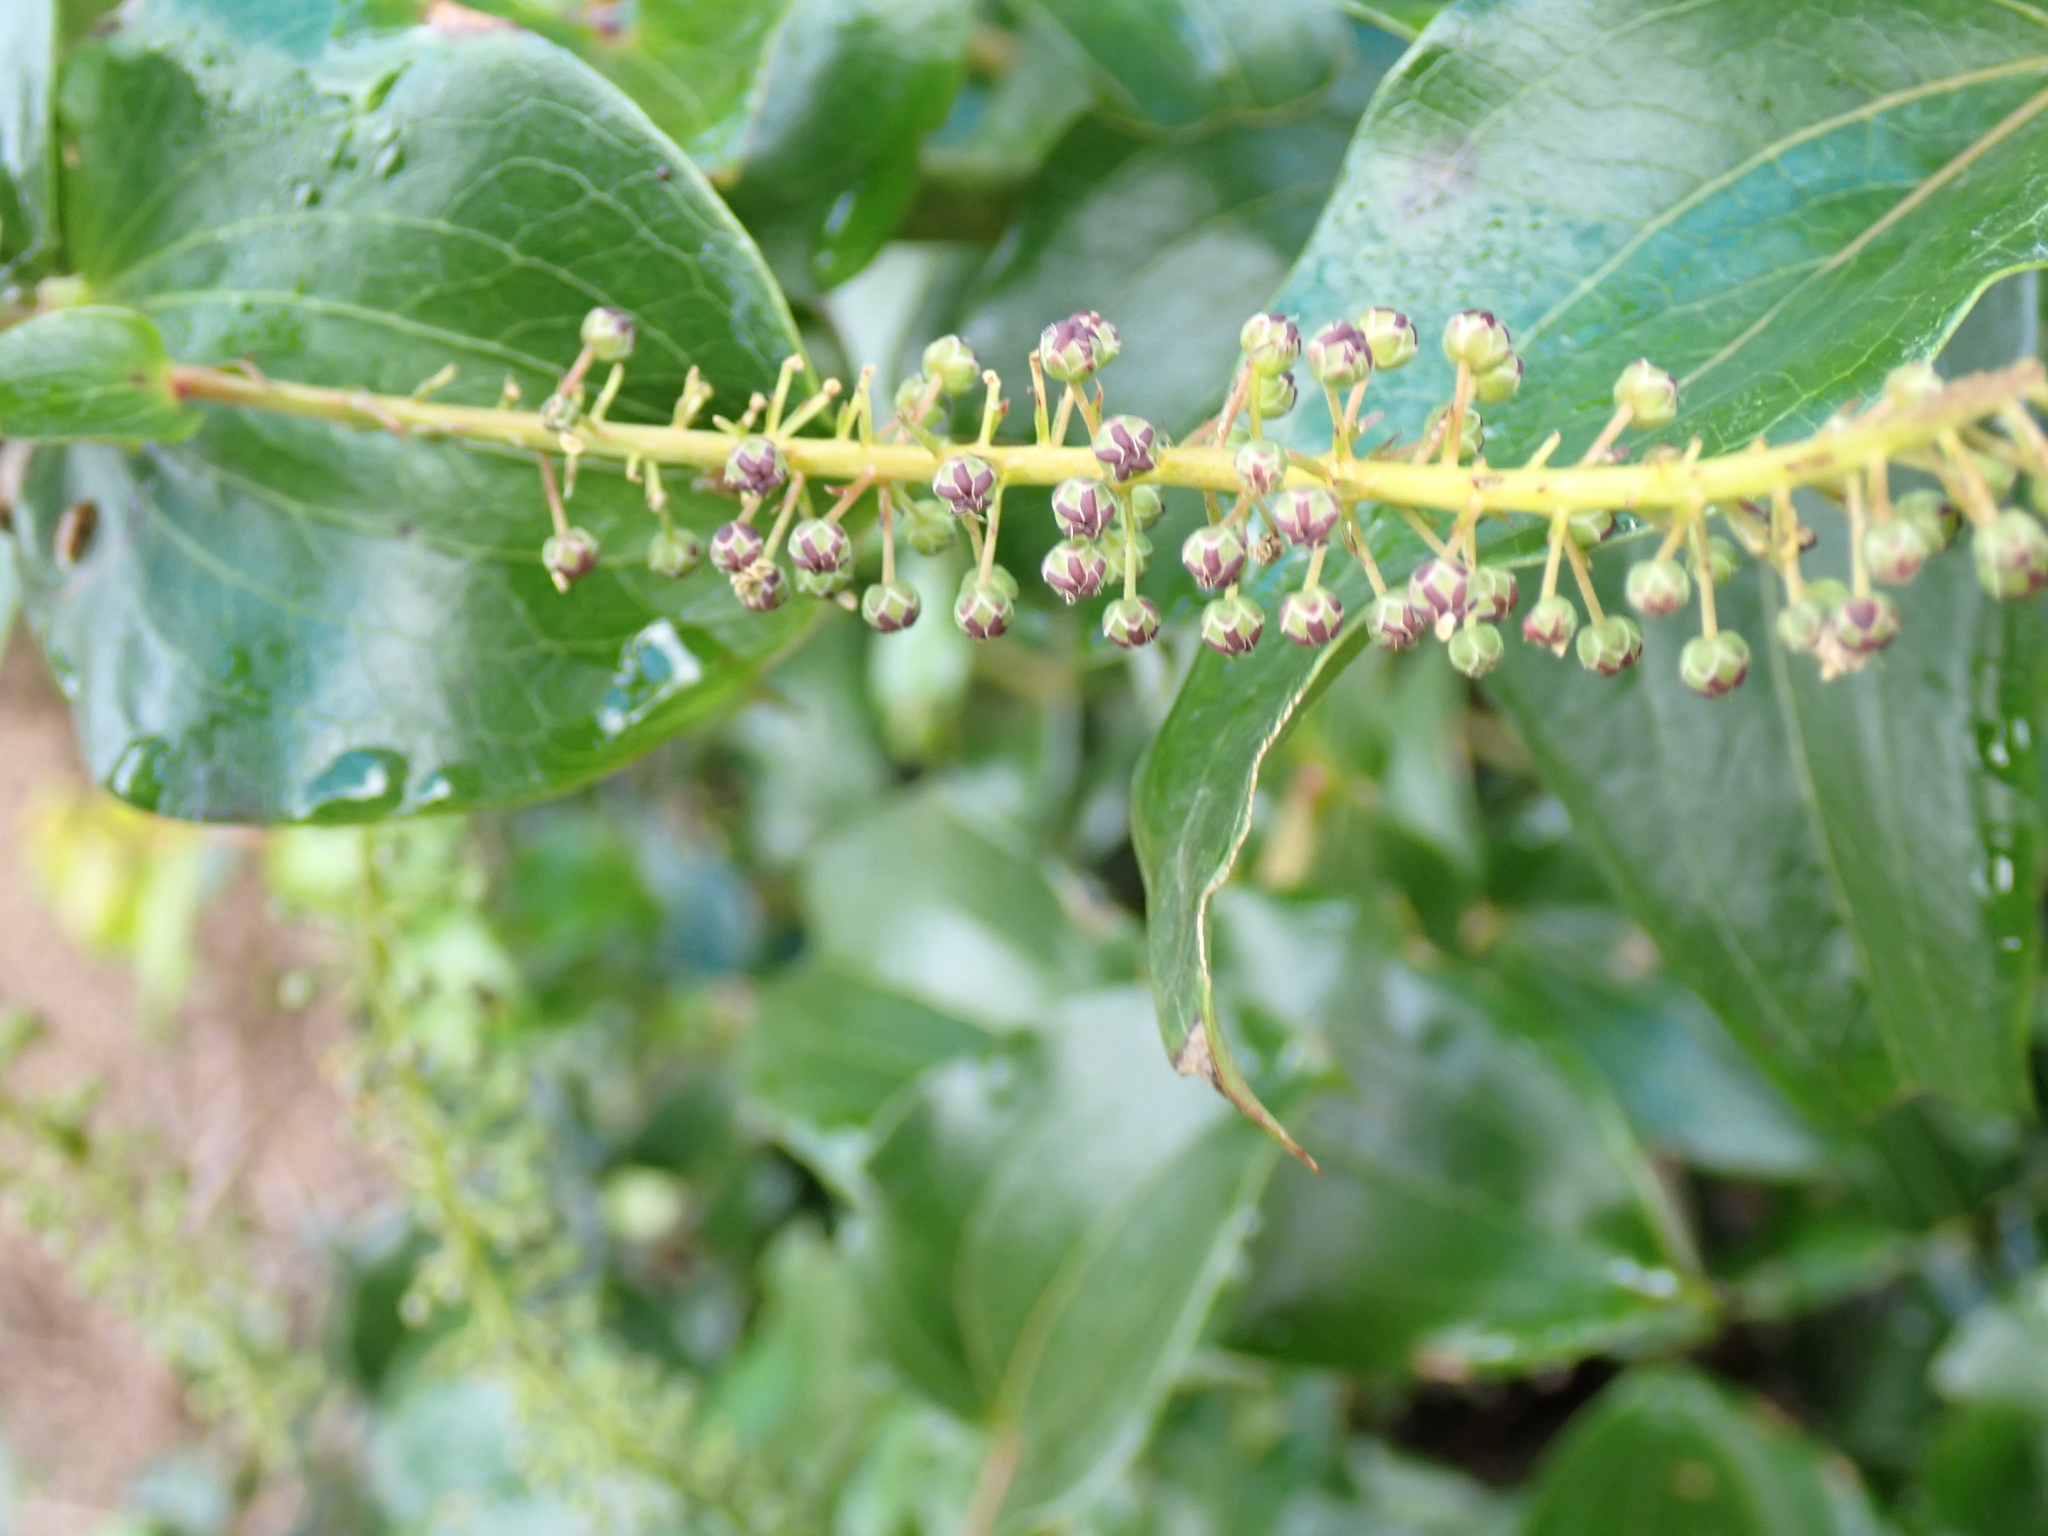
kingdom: Plantae
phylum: Tracheophyta
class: Magnoliopsida
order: Cucurbitales
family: Coriariaceae
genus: Coriaria
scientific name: Coriaria arborea
